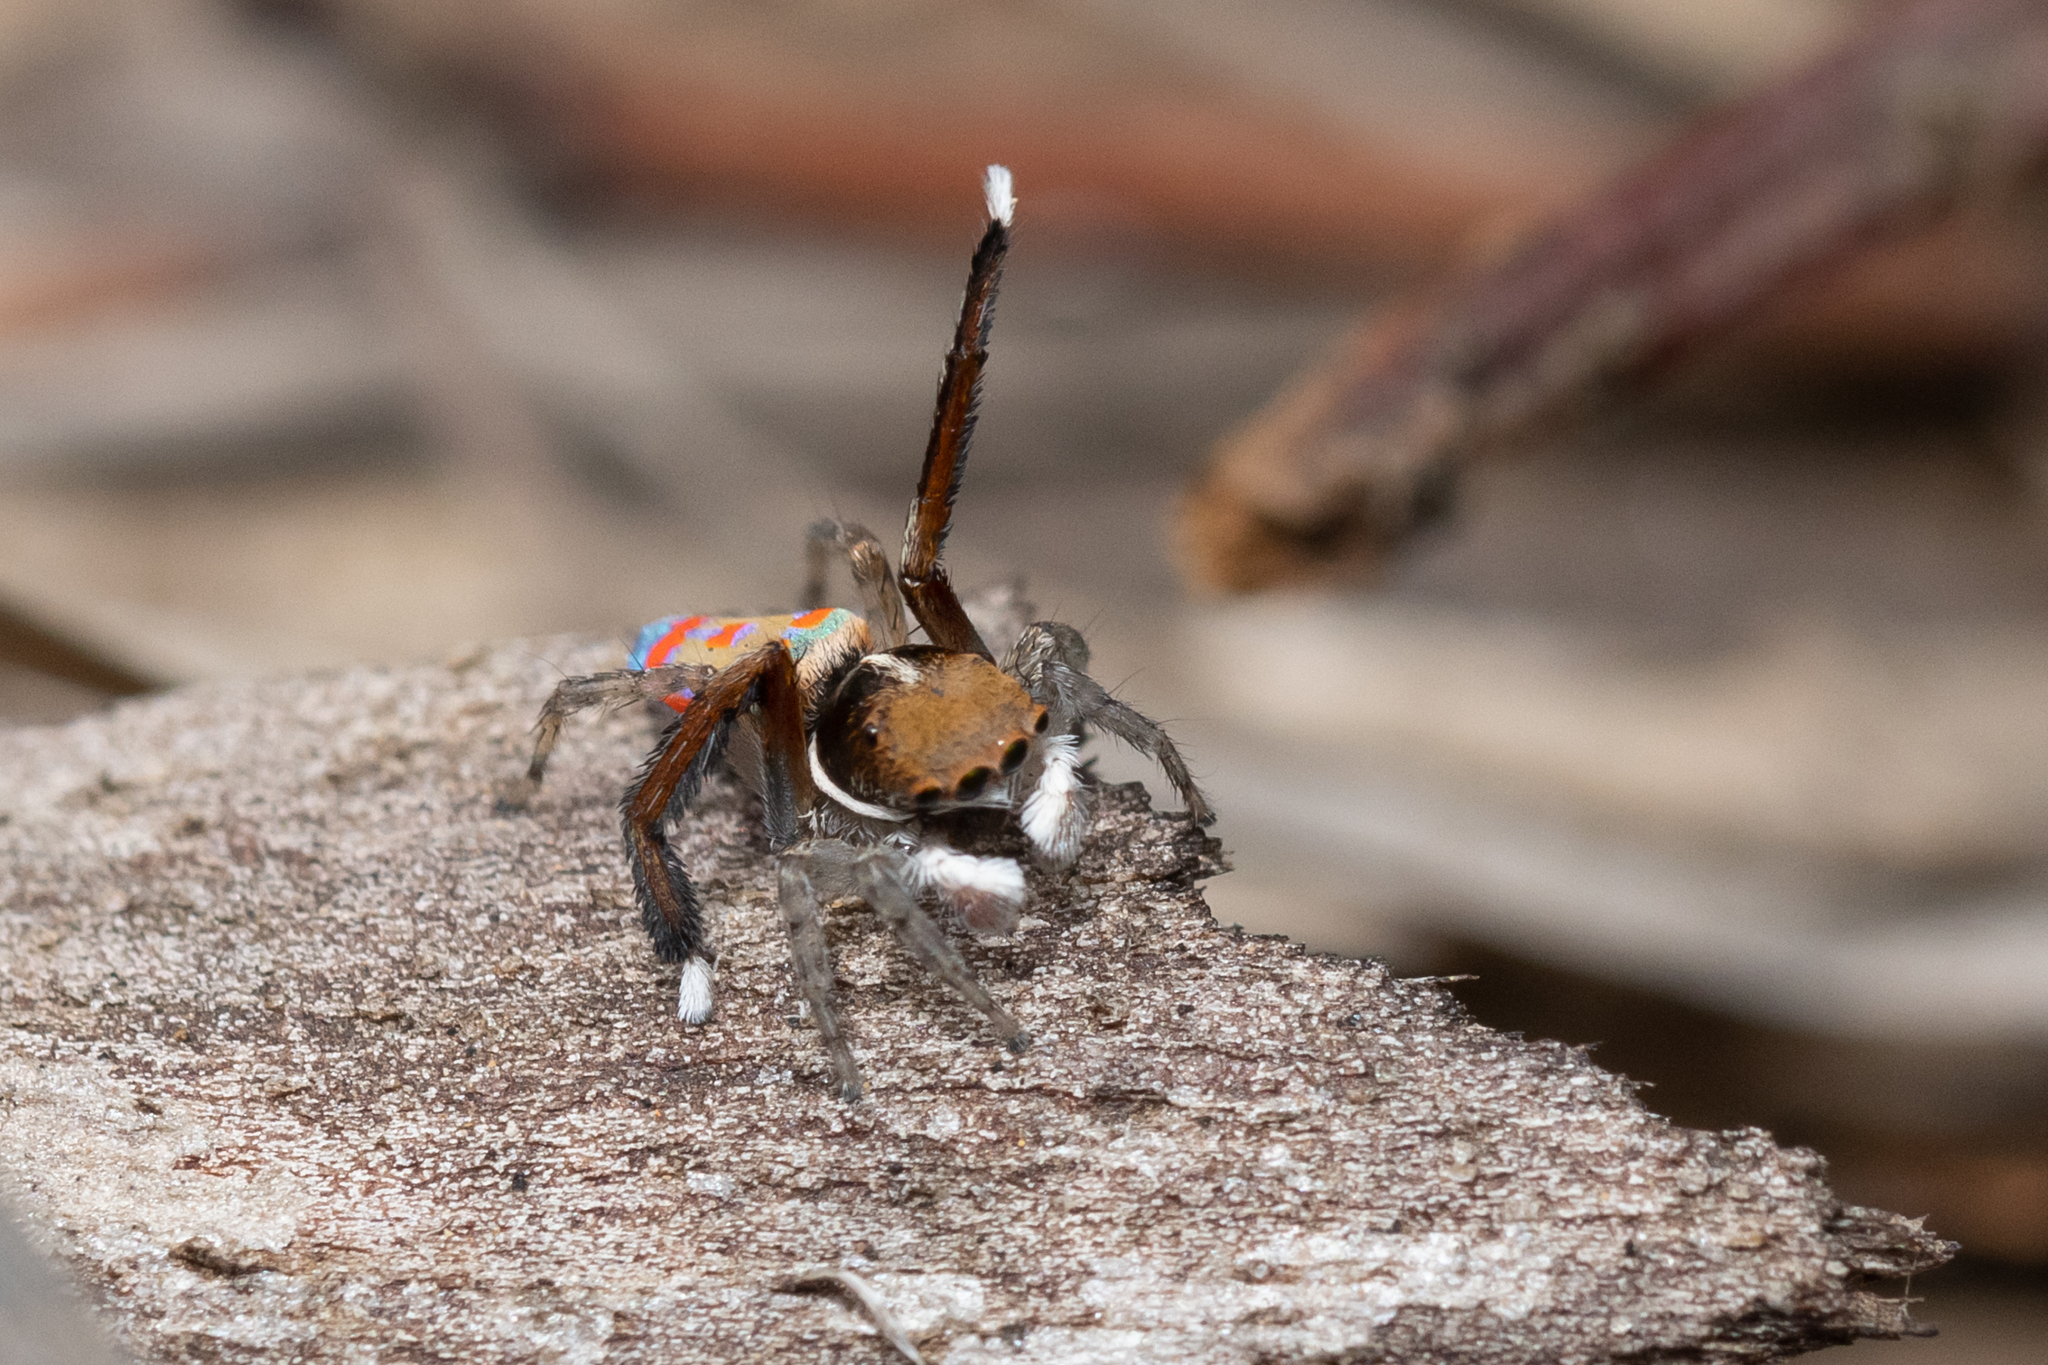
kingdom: Animalia
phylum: Arthropoda
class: Arachnida
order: Araneae
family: Salticidae
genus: Maratus
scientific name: Maratus pavonis
